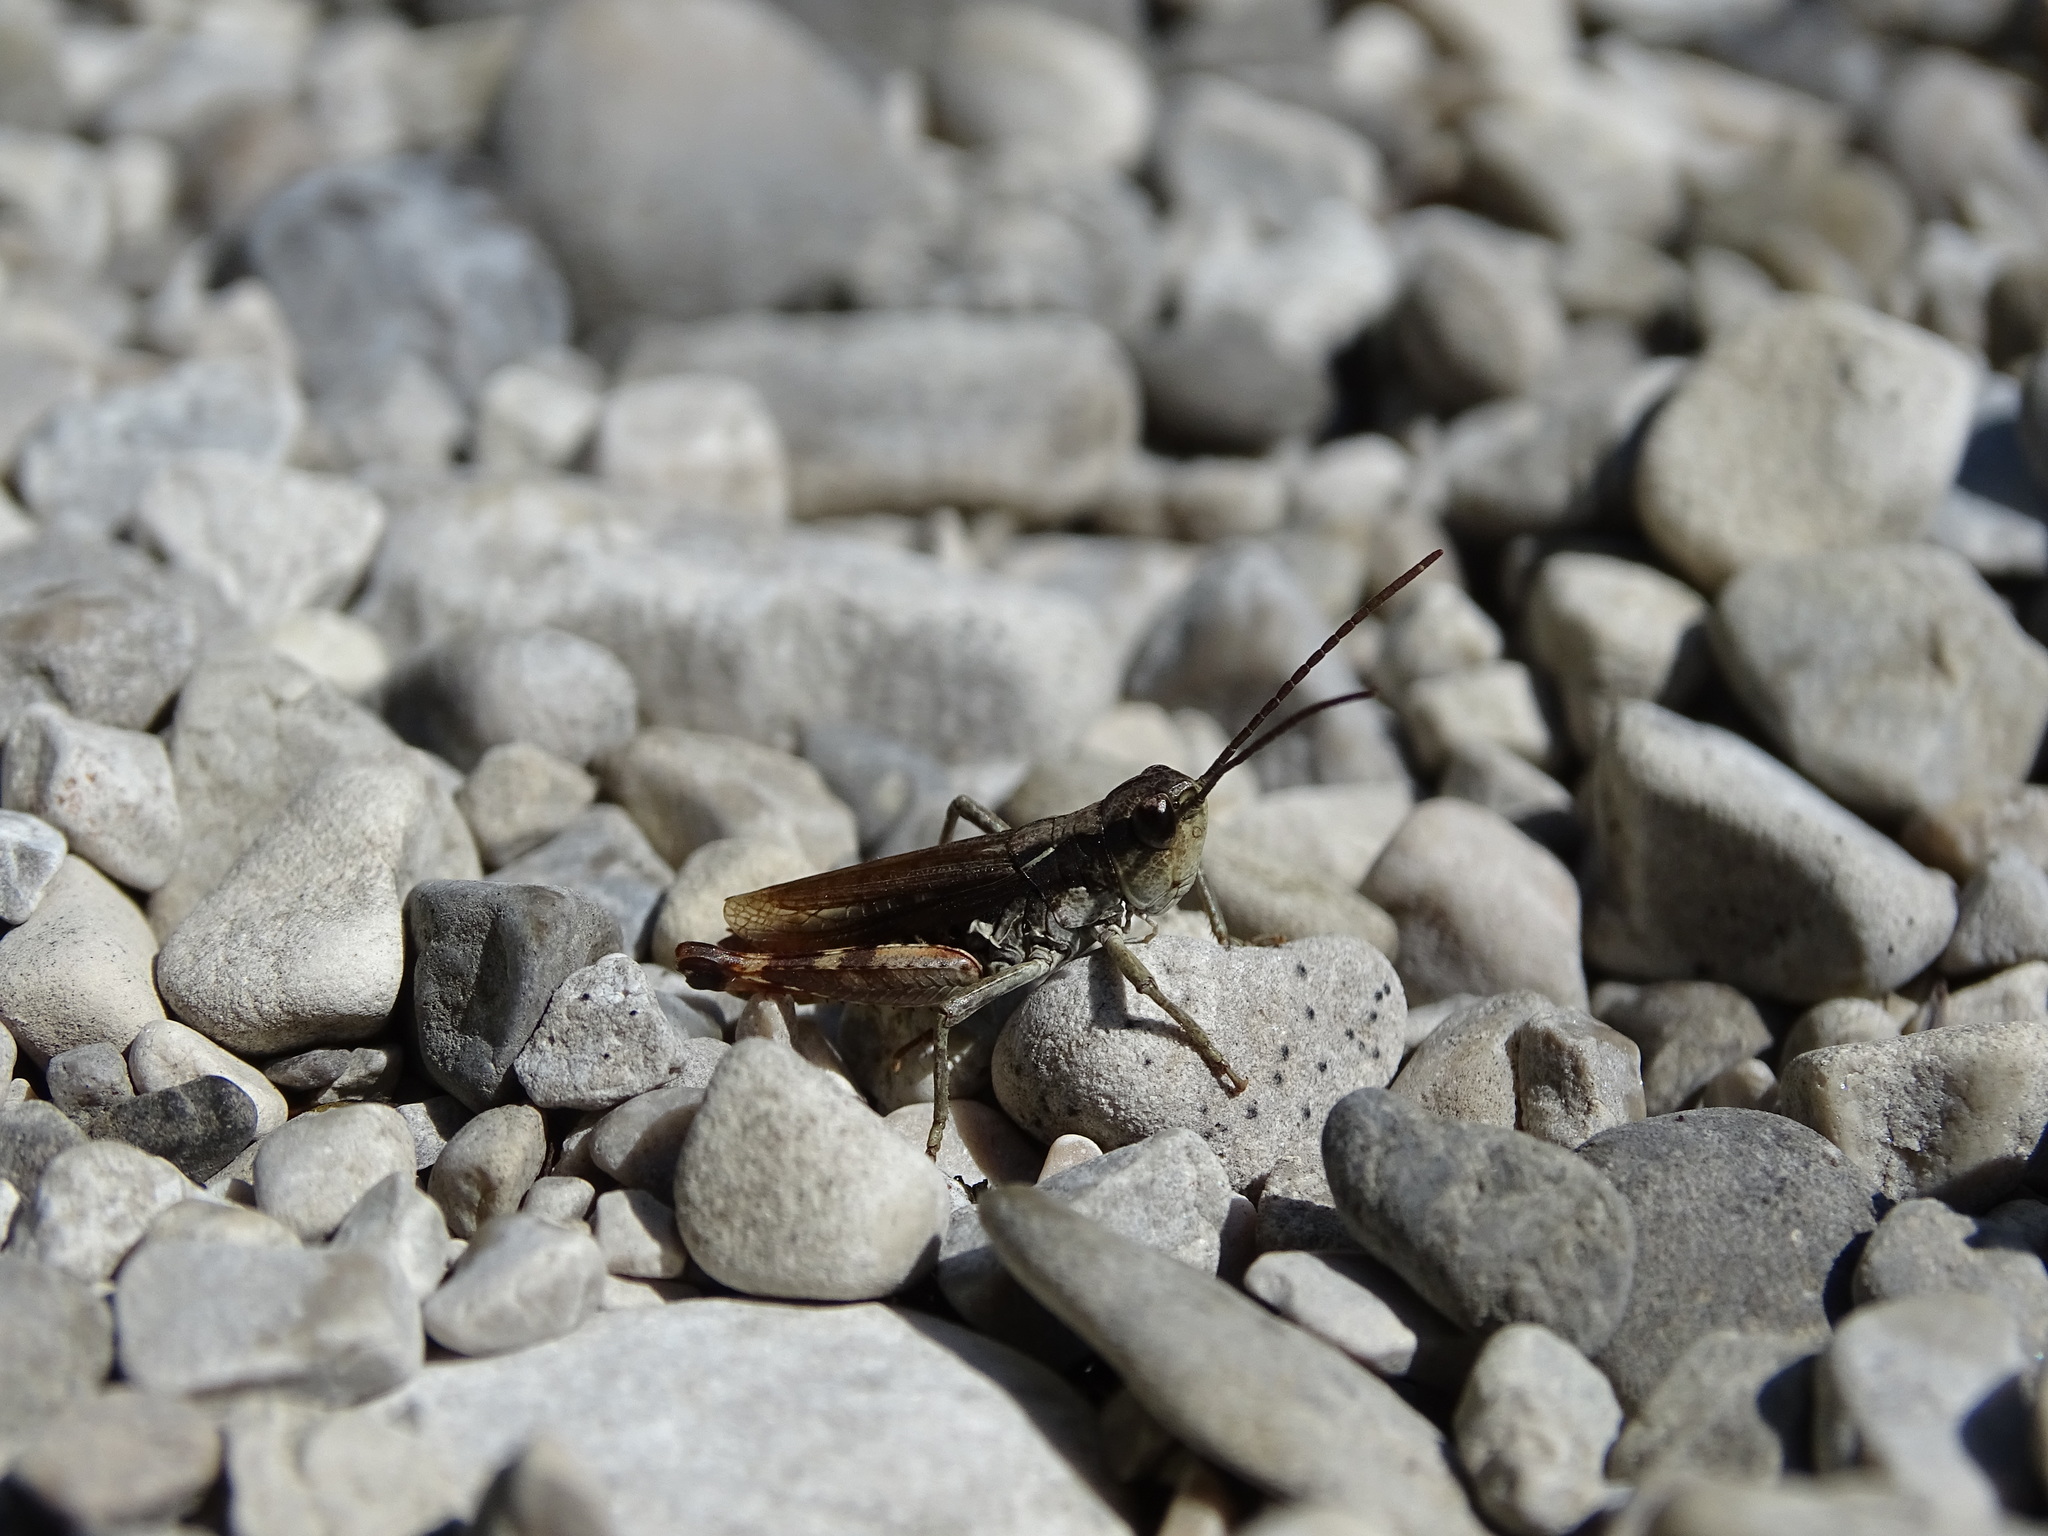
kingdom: Animalia
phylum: Arthropoda
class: Insecta
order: Orthoptera
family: Acrididae
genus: Chorthippus
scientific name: Chorthippus pullus
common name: Gravel grasshopper
